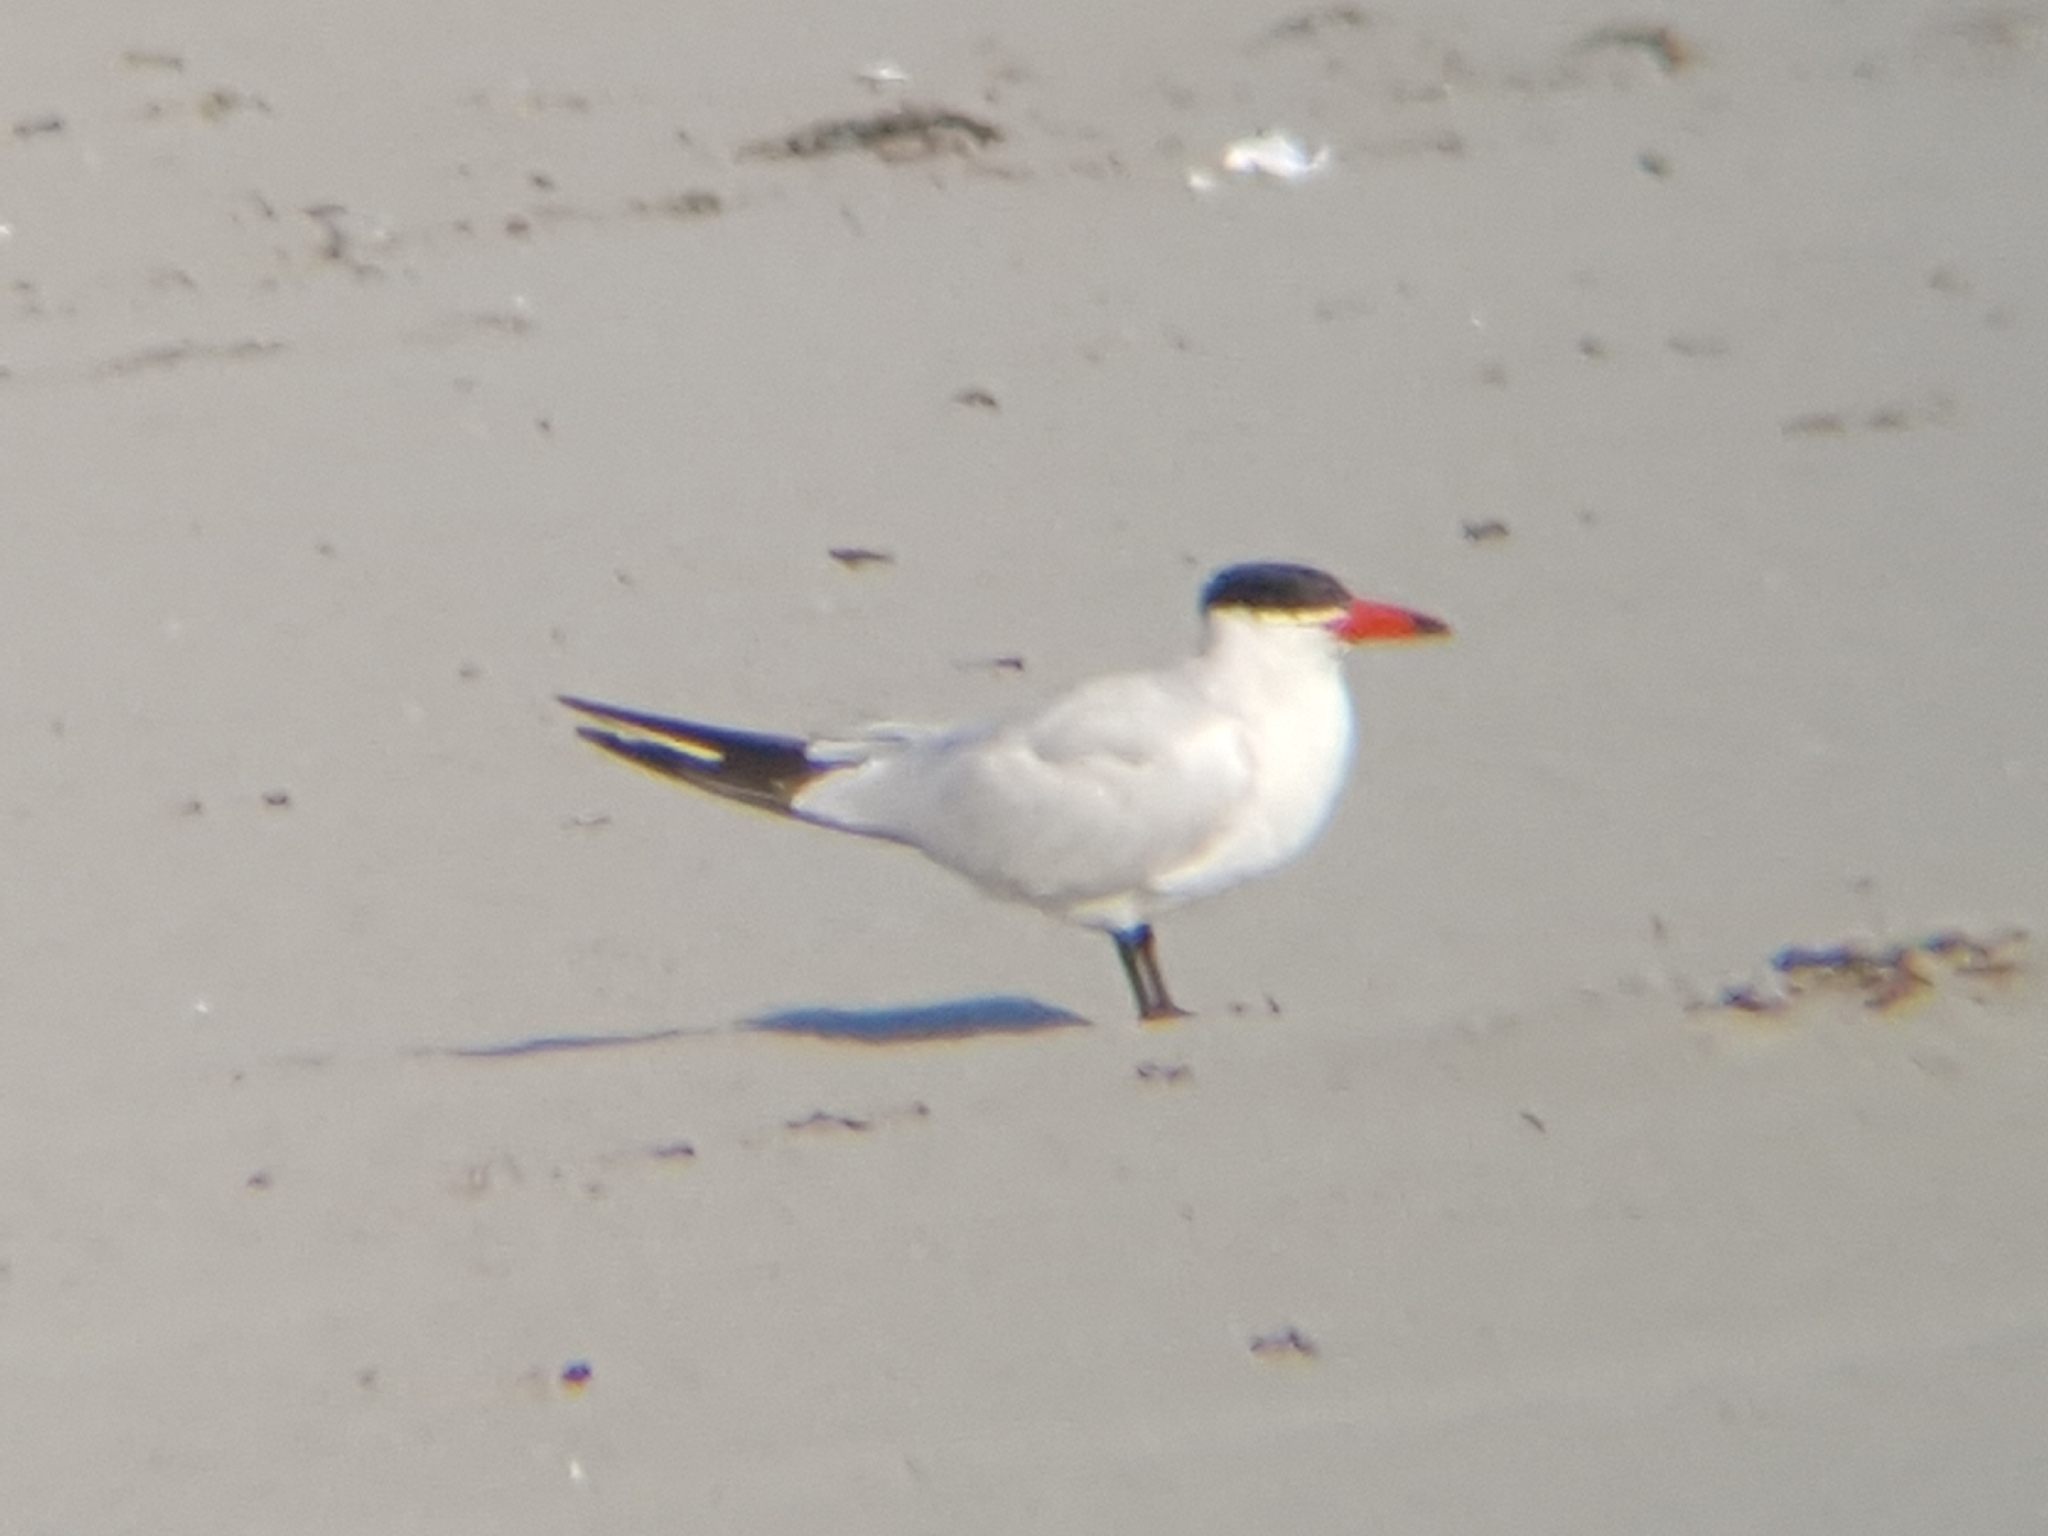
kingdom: Animalia
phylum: Chordata
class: Aves
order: Charadriiformes
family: Laridae
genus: Hydroprogne
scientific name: Hydroprogne caspia
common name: Caspian tern
